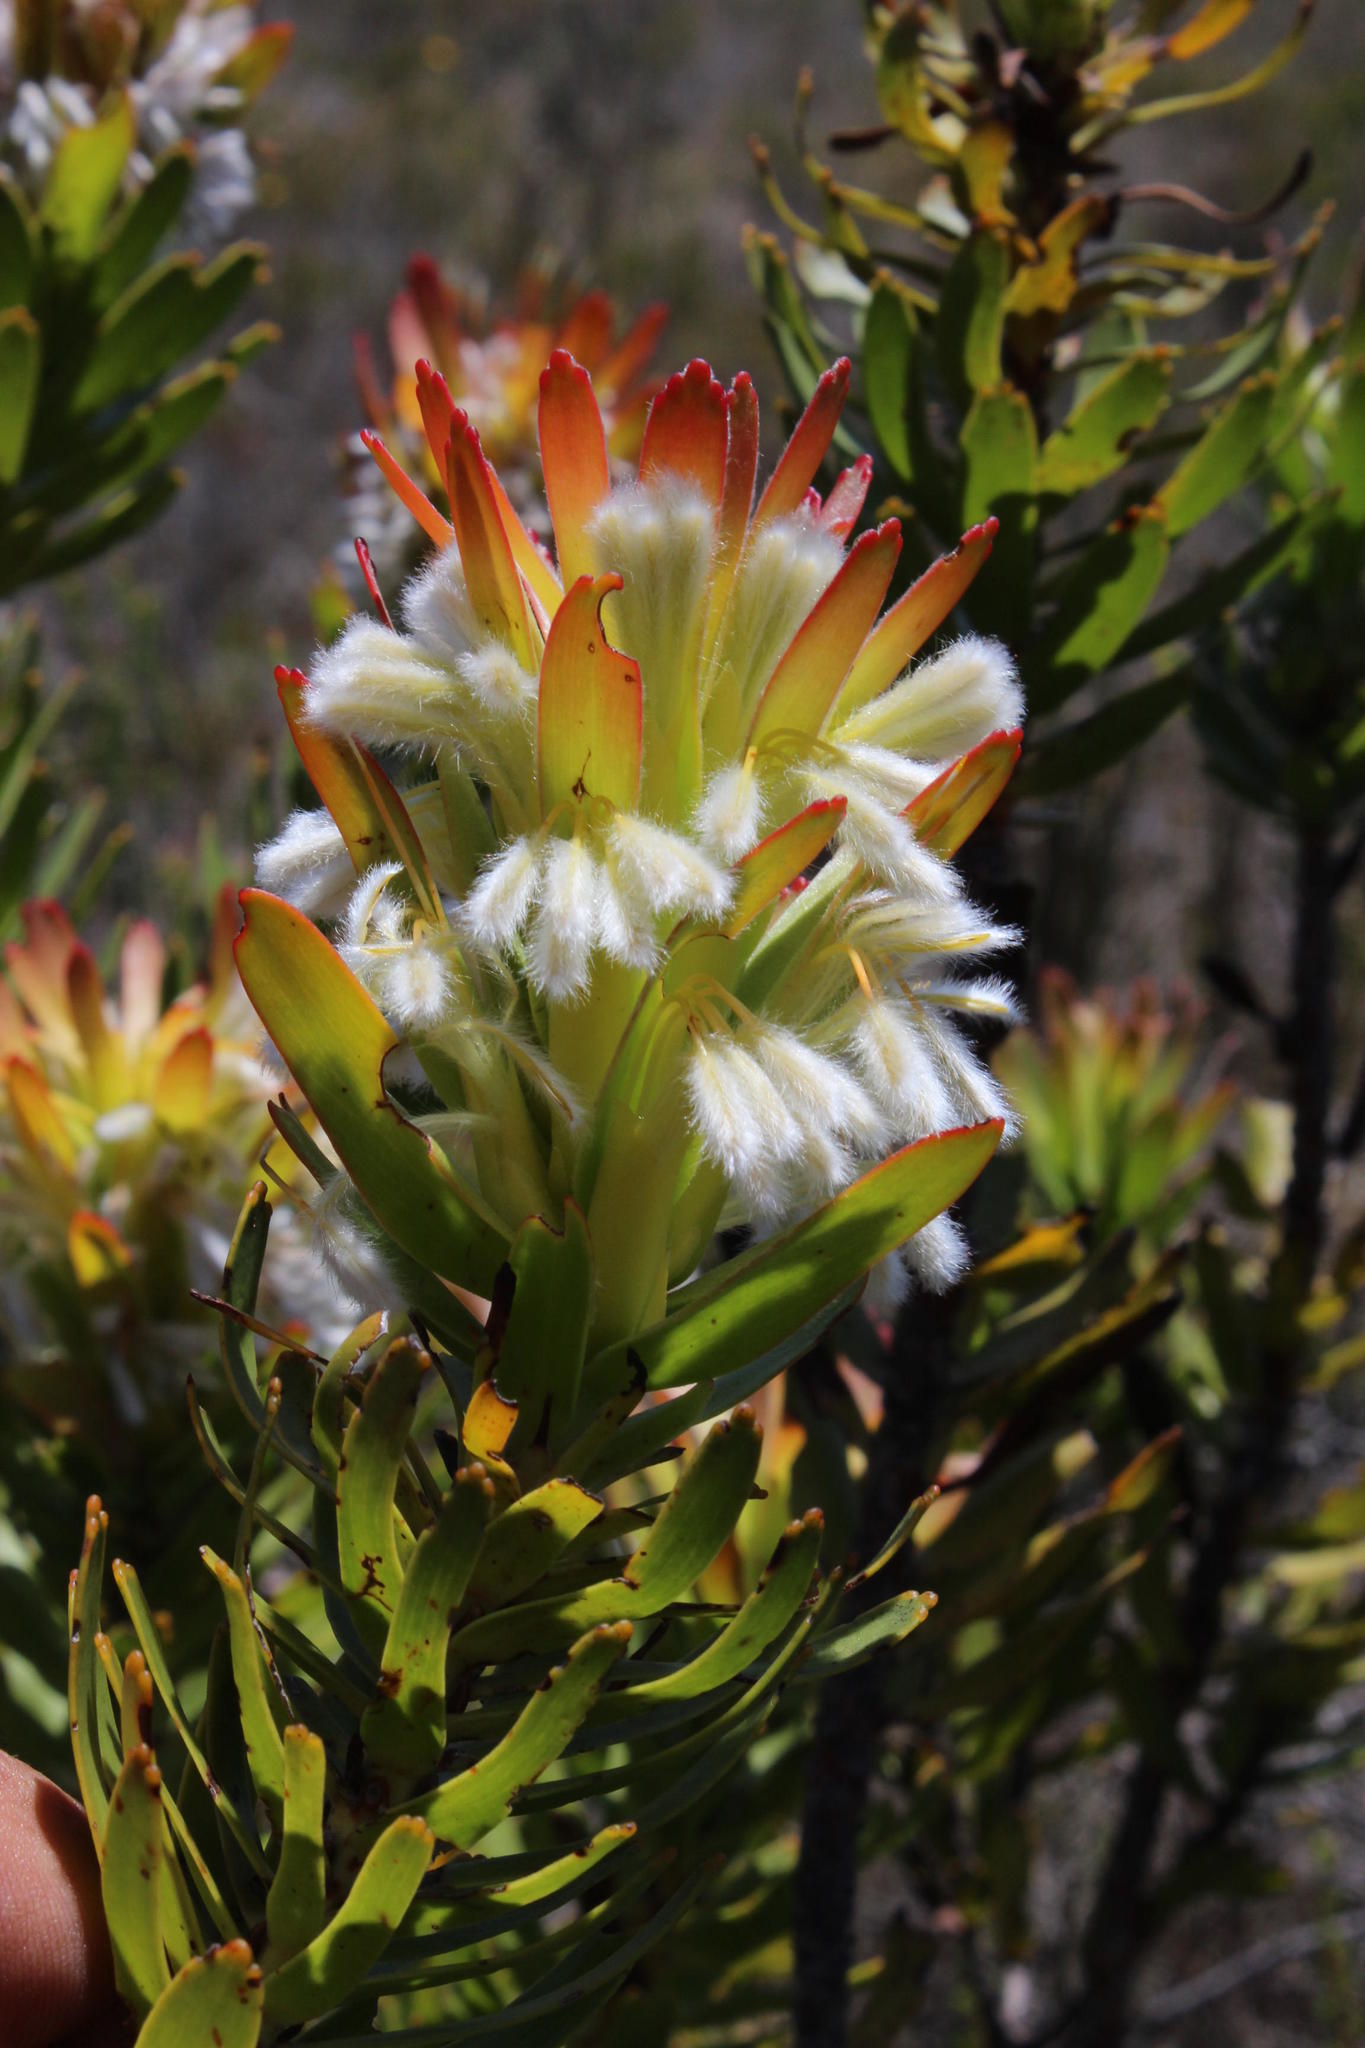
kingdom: Plantae
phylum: Tracheophyta
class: Magnoliopsida
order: Proteales
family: Proteaceae
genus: Mimetes
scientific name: Mimetes cucullatus
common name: Common pagoda
